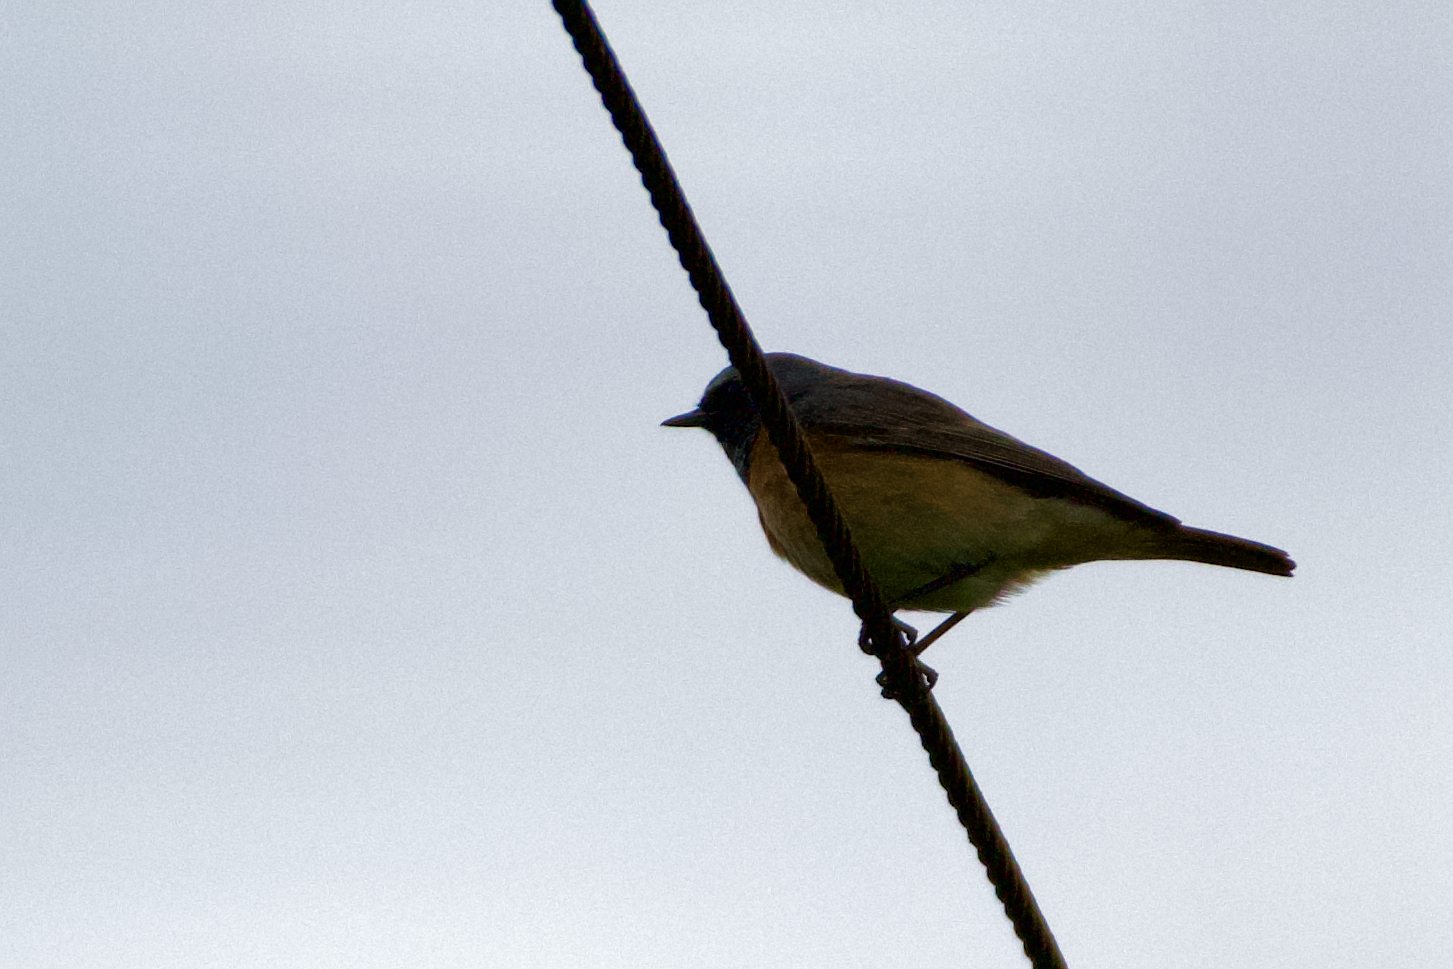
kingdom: Animalia
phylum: Chordata
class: Aves
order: Passeriformes
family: Muscicapidae
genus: Phoenicurus
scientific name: Phoenicurus phoenicurus
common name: Common redstart
